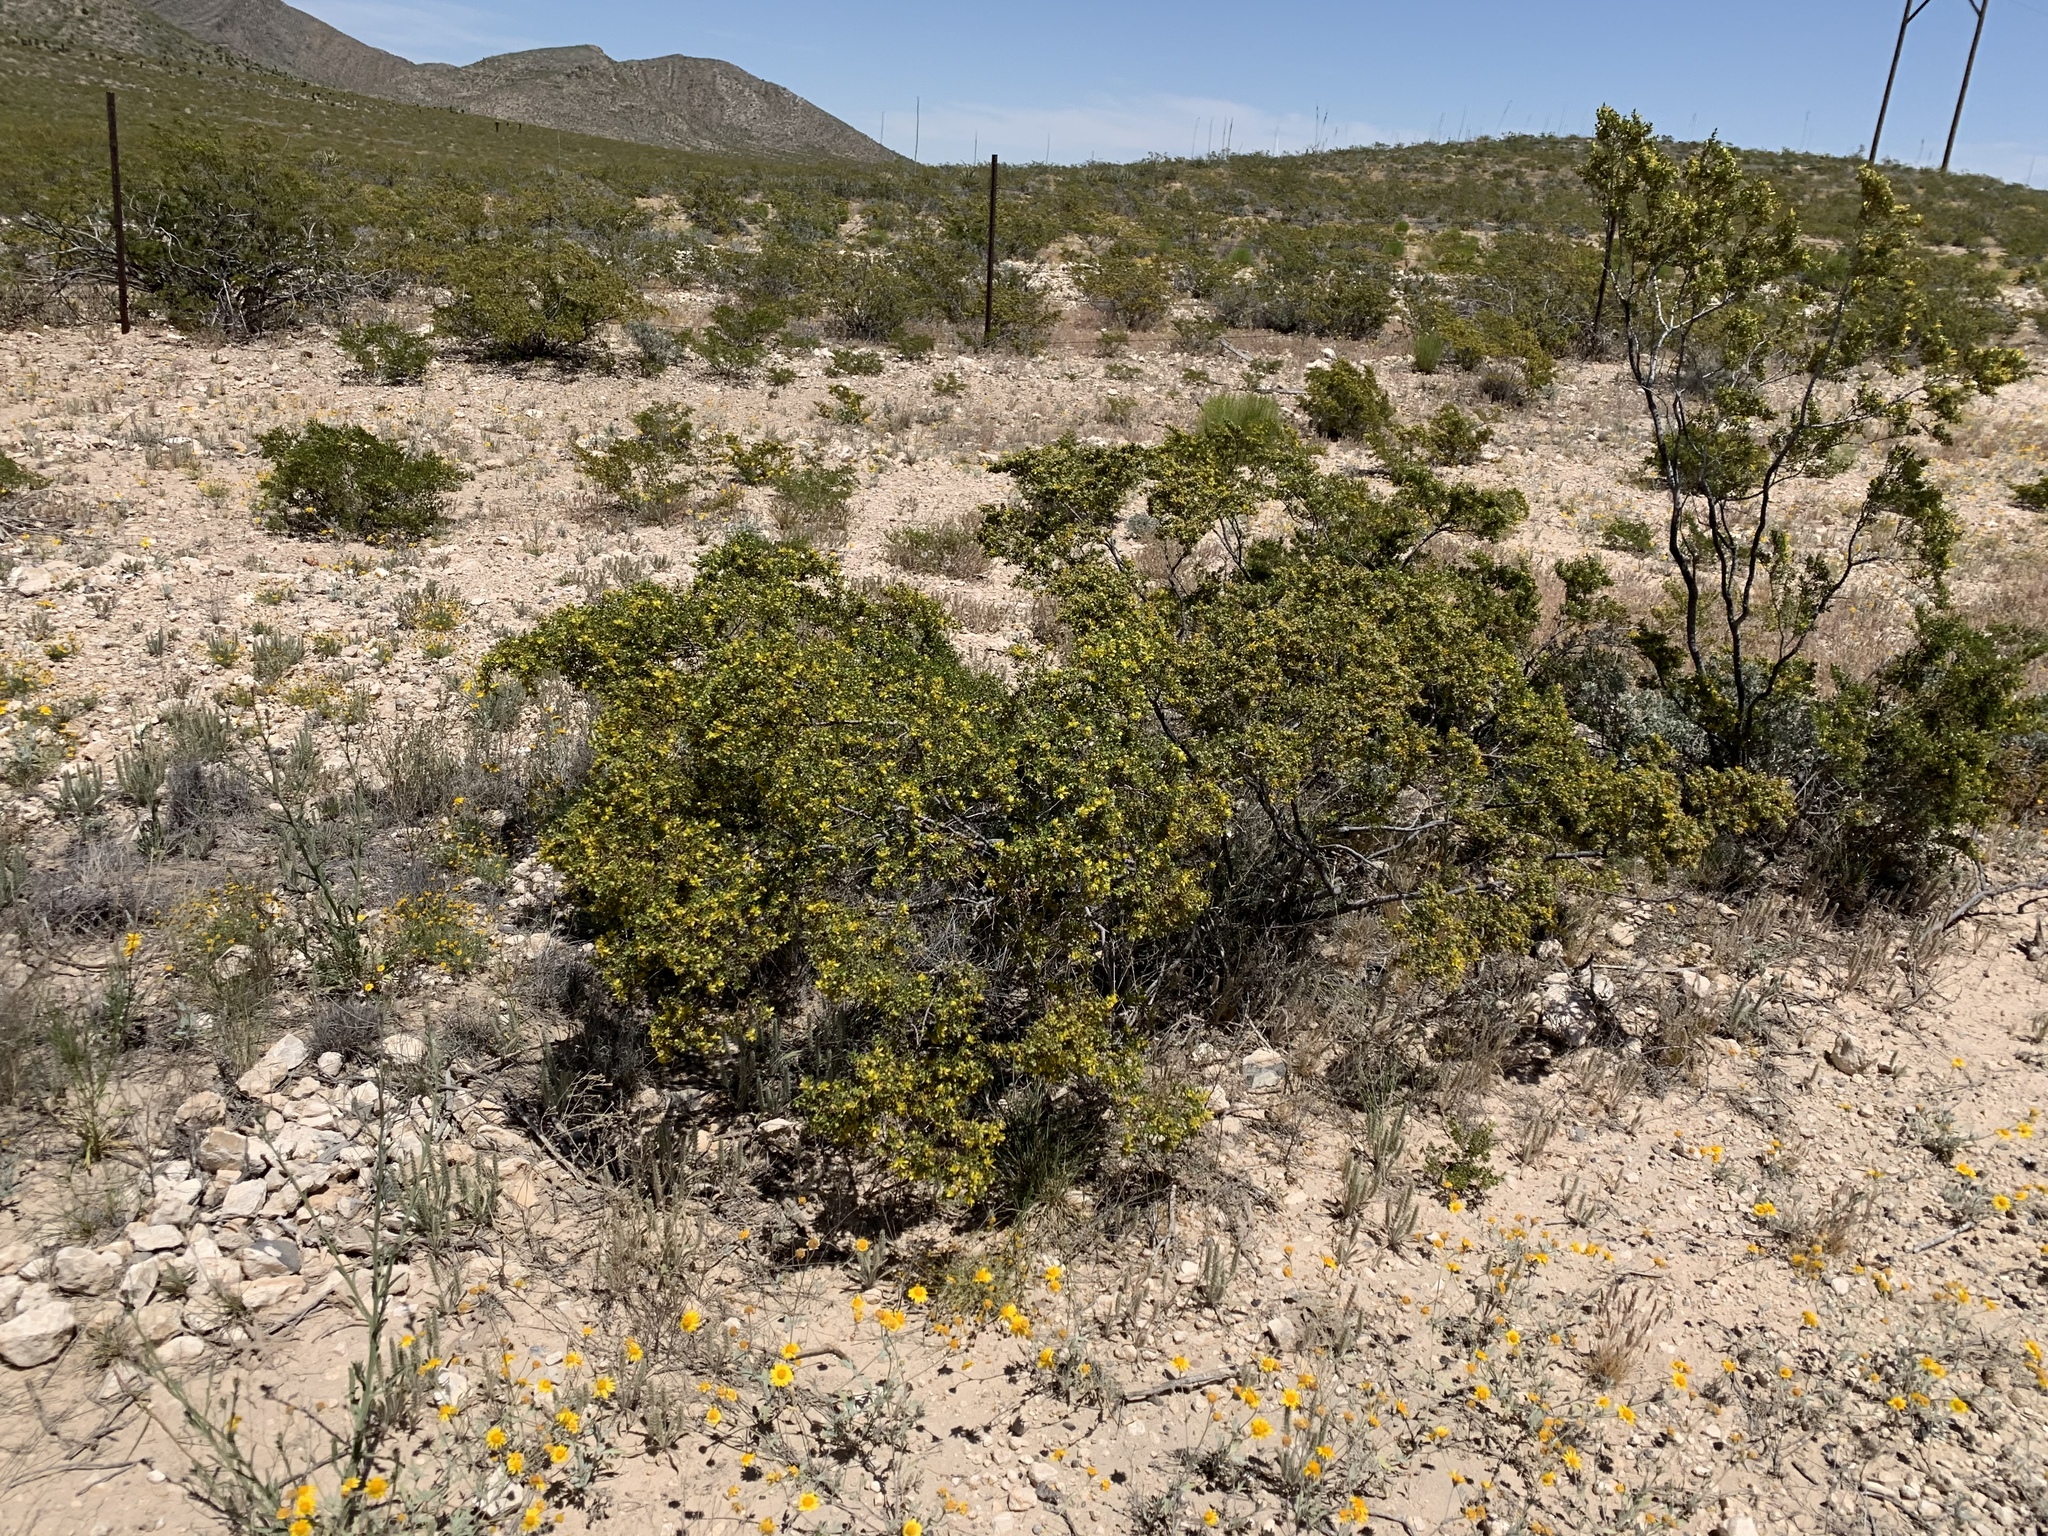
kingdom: Plantae
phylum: Tracheophyta
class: Magnoliopsida
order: Zygophyllales
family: Zygophyllaceae
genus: Larrea
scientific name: Larrea tridentata
